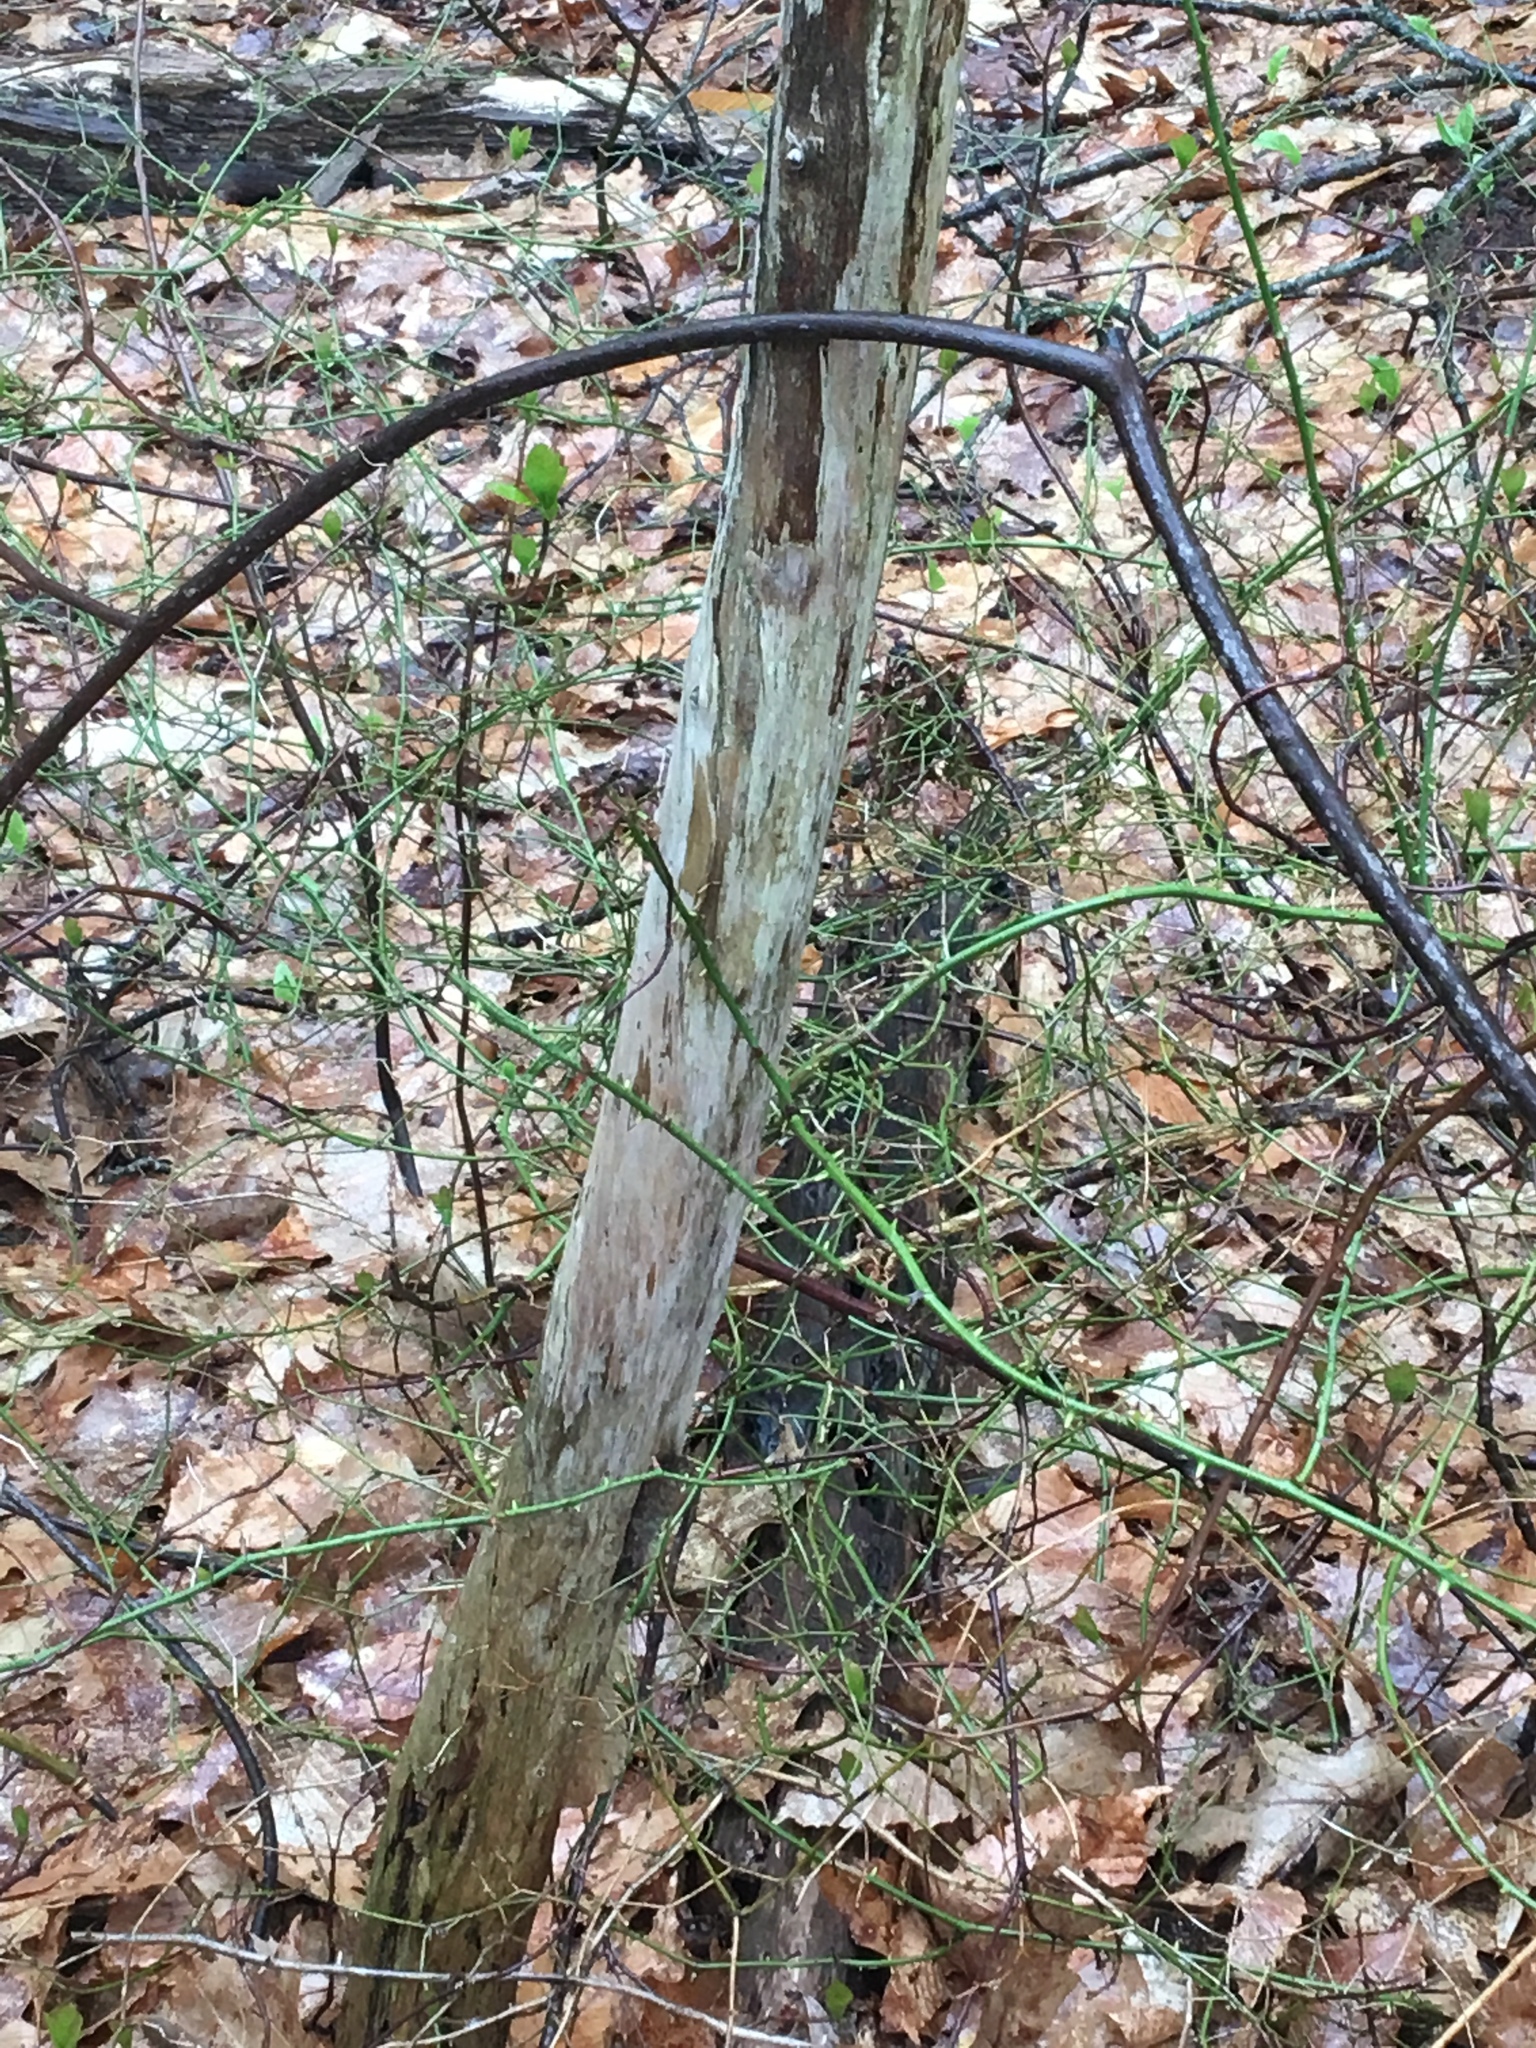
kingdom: Plantae
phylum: Tracheophyta
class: Liliopsida
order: Liliales
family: Smilacaceae
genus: Smilax
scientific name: Smilax rotundifolia
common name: Bullbriar
